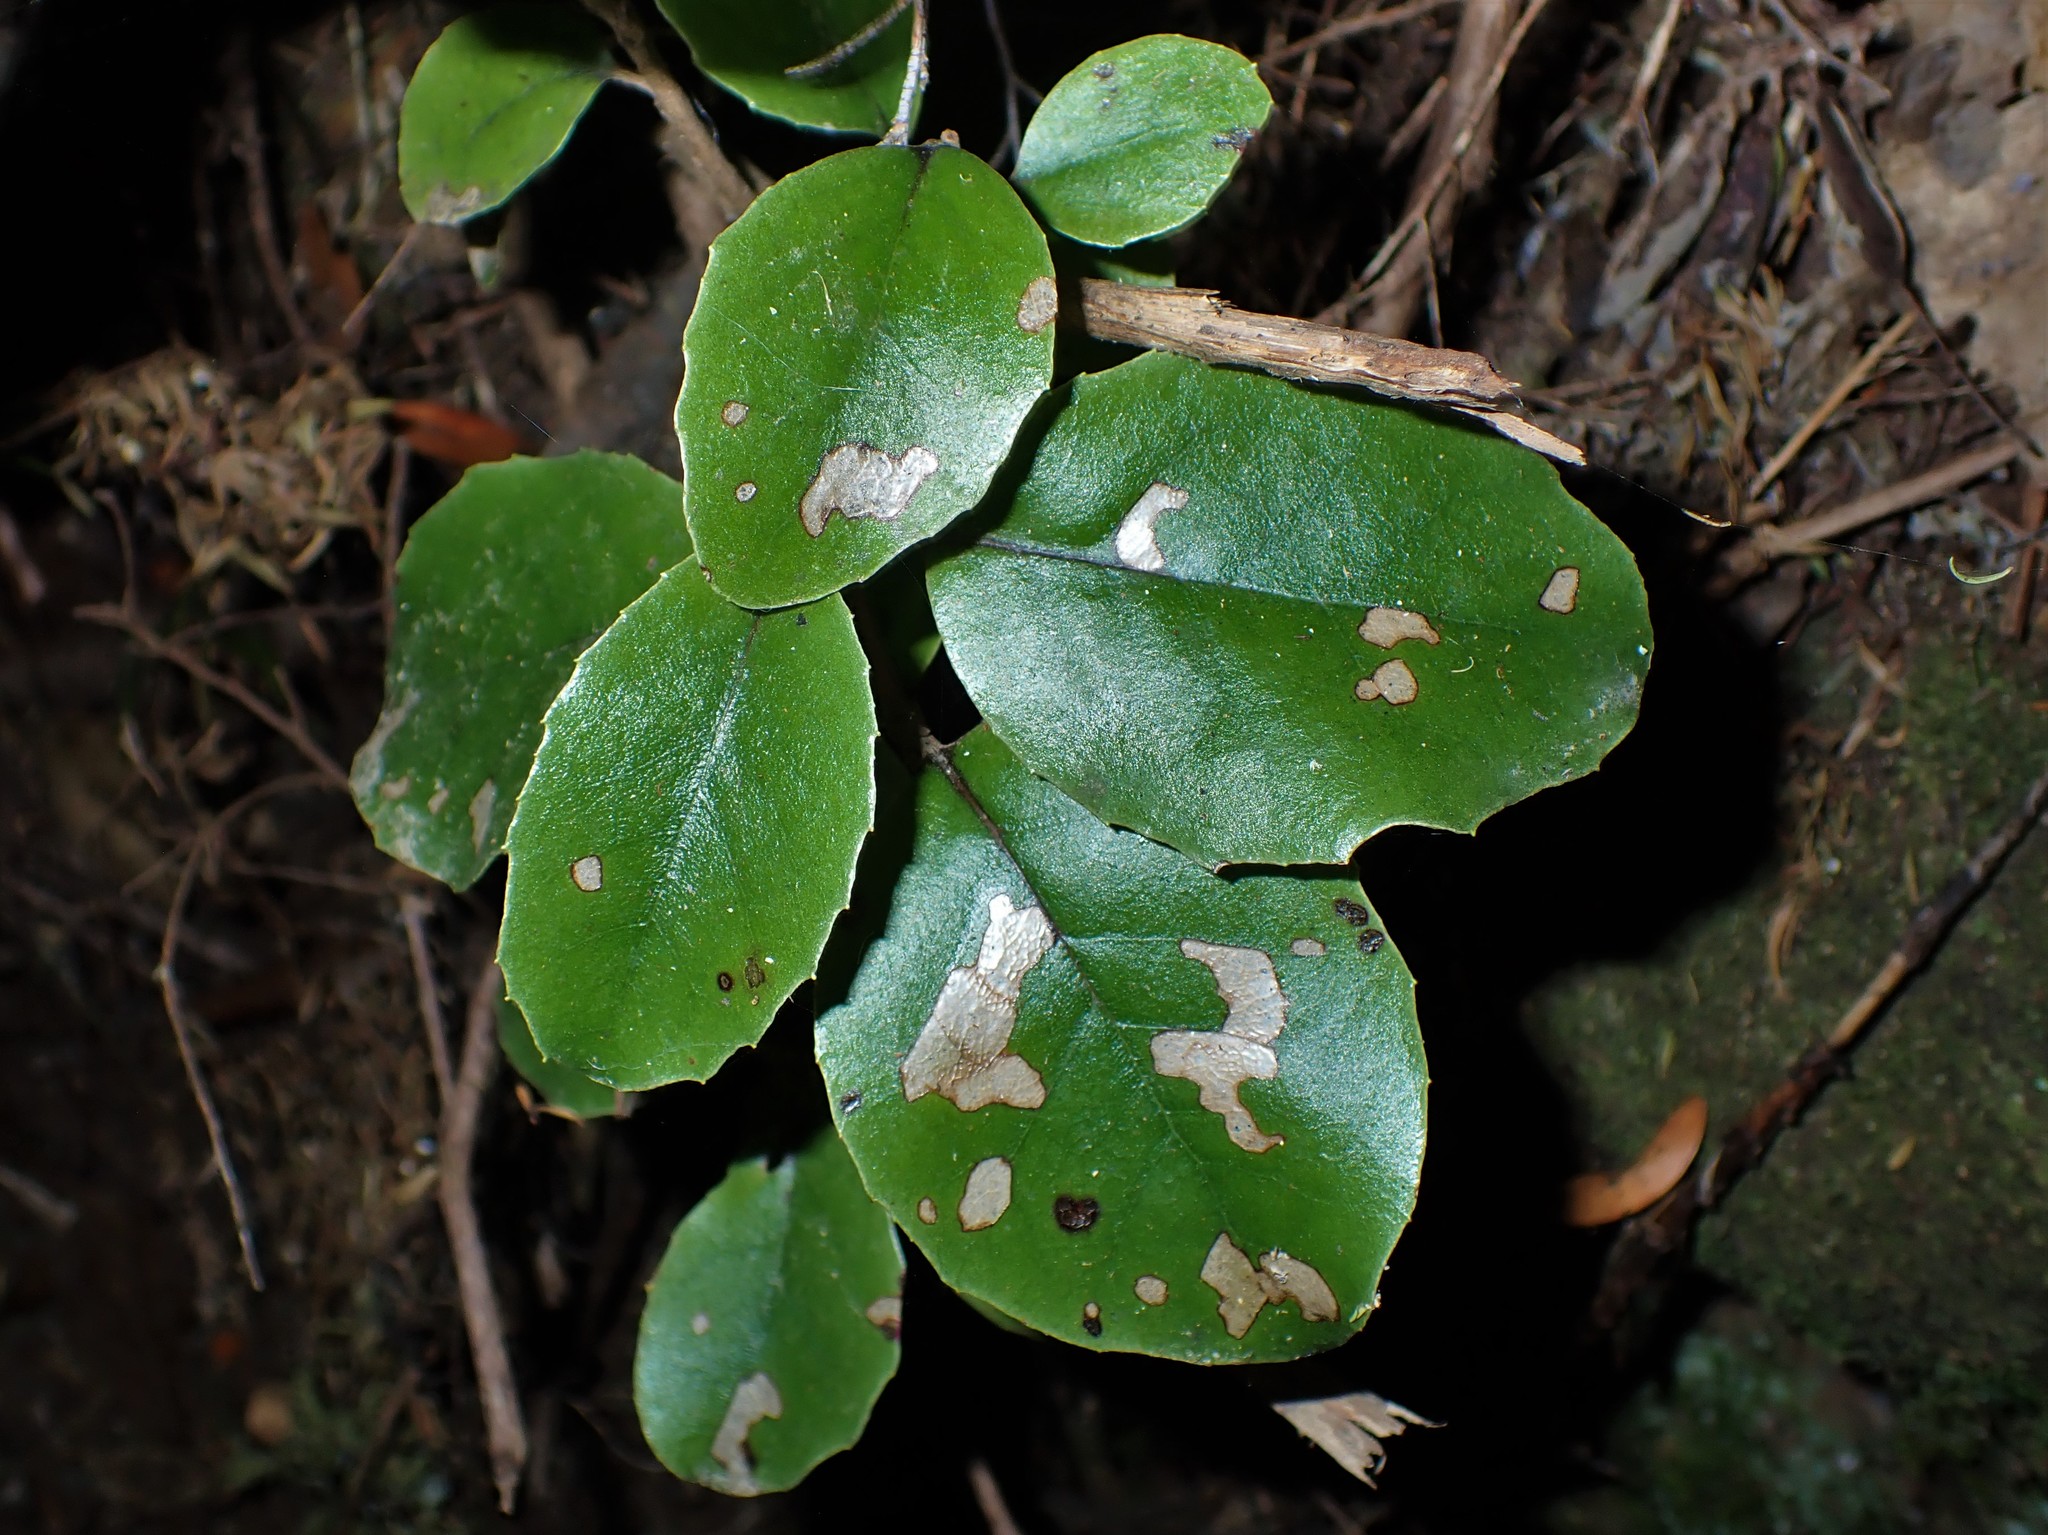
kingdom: Plantae
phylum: Tracheophyta
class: Magnoliopsida
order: Asterales
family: Asteraceae
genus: Olearia
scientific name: Olearia furfuracea
